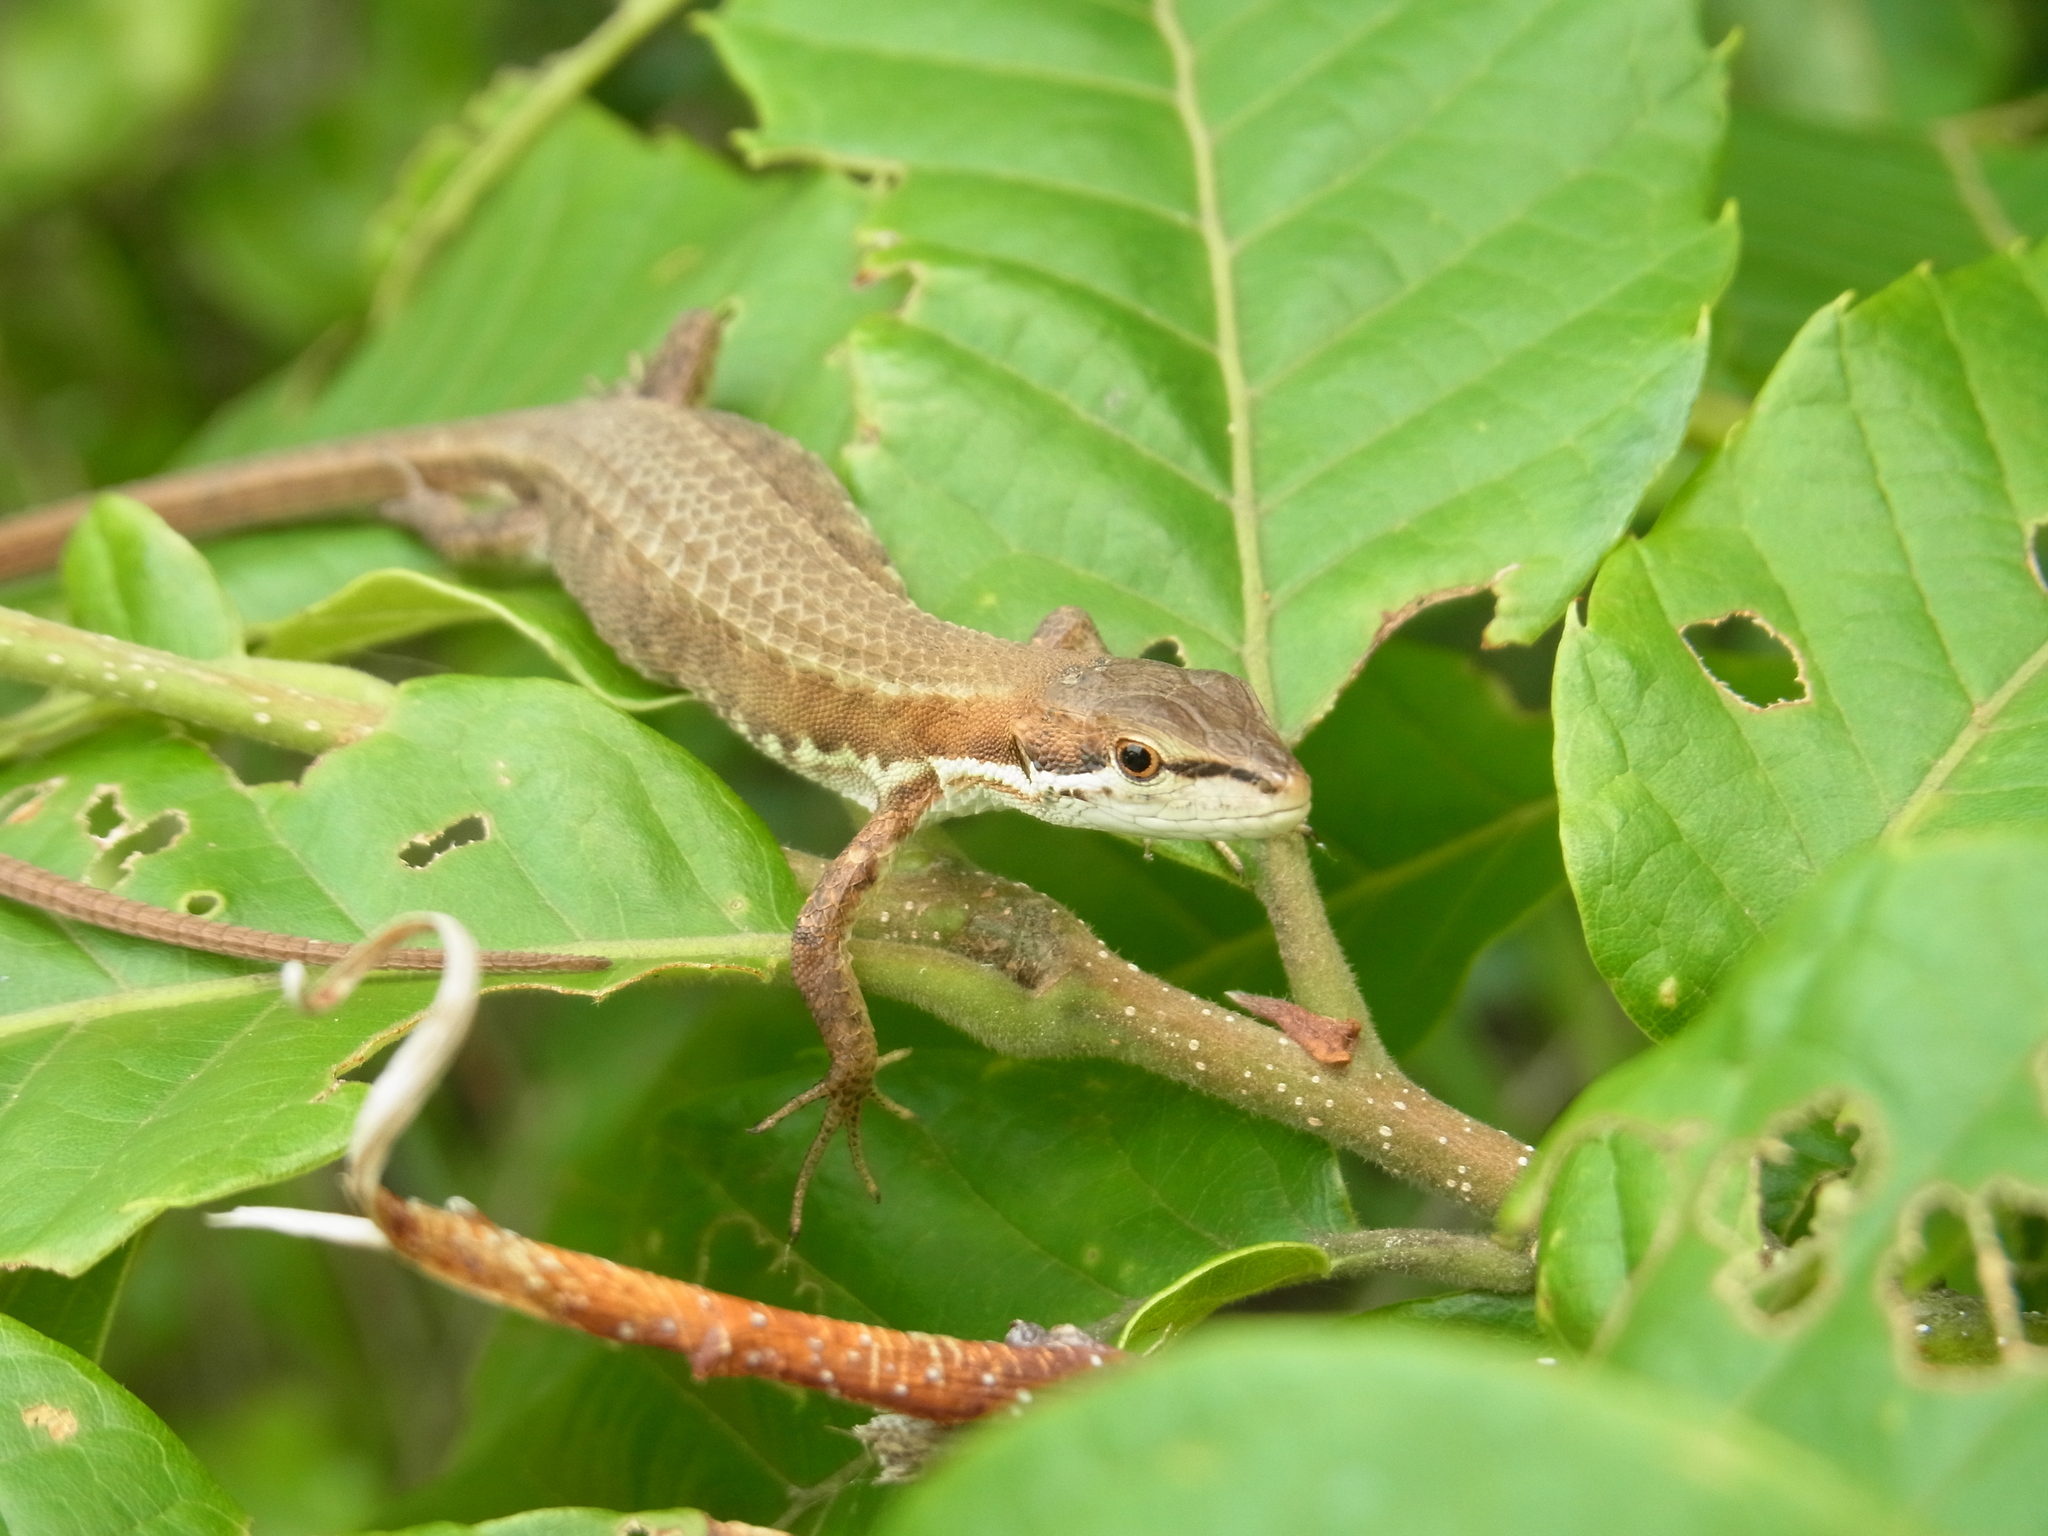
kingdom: Animalia
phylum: Chordata
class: Squamata
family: Lacertidae
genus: Takydromus
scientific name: Takydromus tachydromoides
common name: Japanese grass lizard
